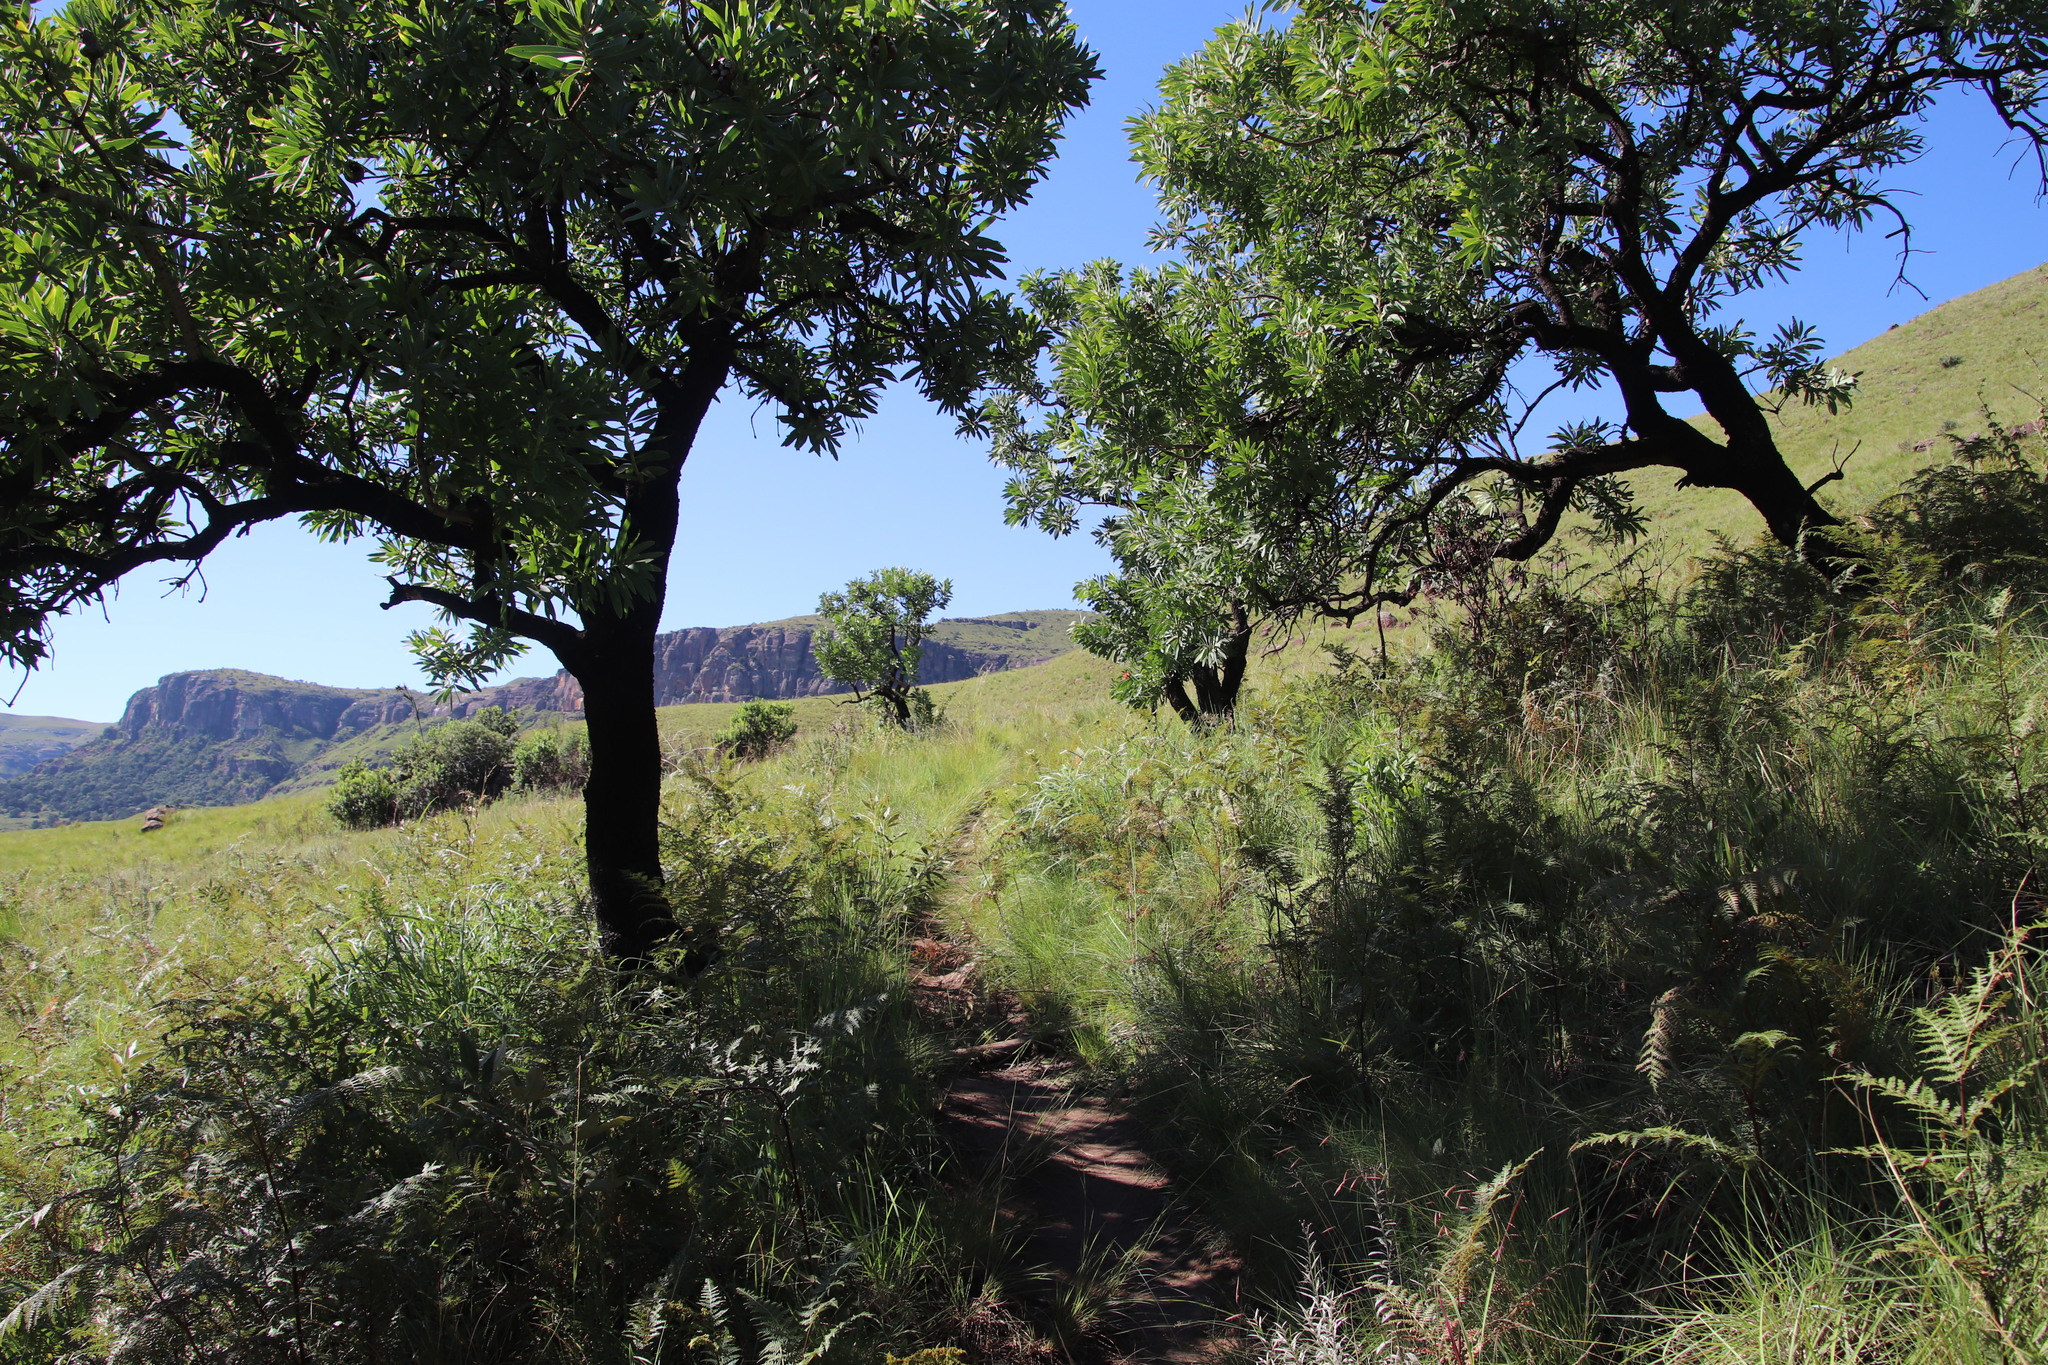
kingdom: Plantae
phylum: Tracheophyta
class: Magnoliopsida
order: Proteales
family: Proteaceae
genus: Protea
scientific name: Protea caffra
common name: Common sugarbush
